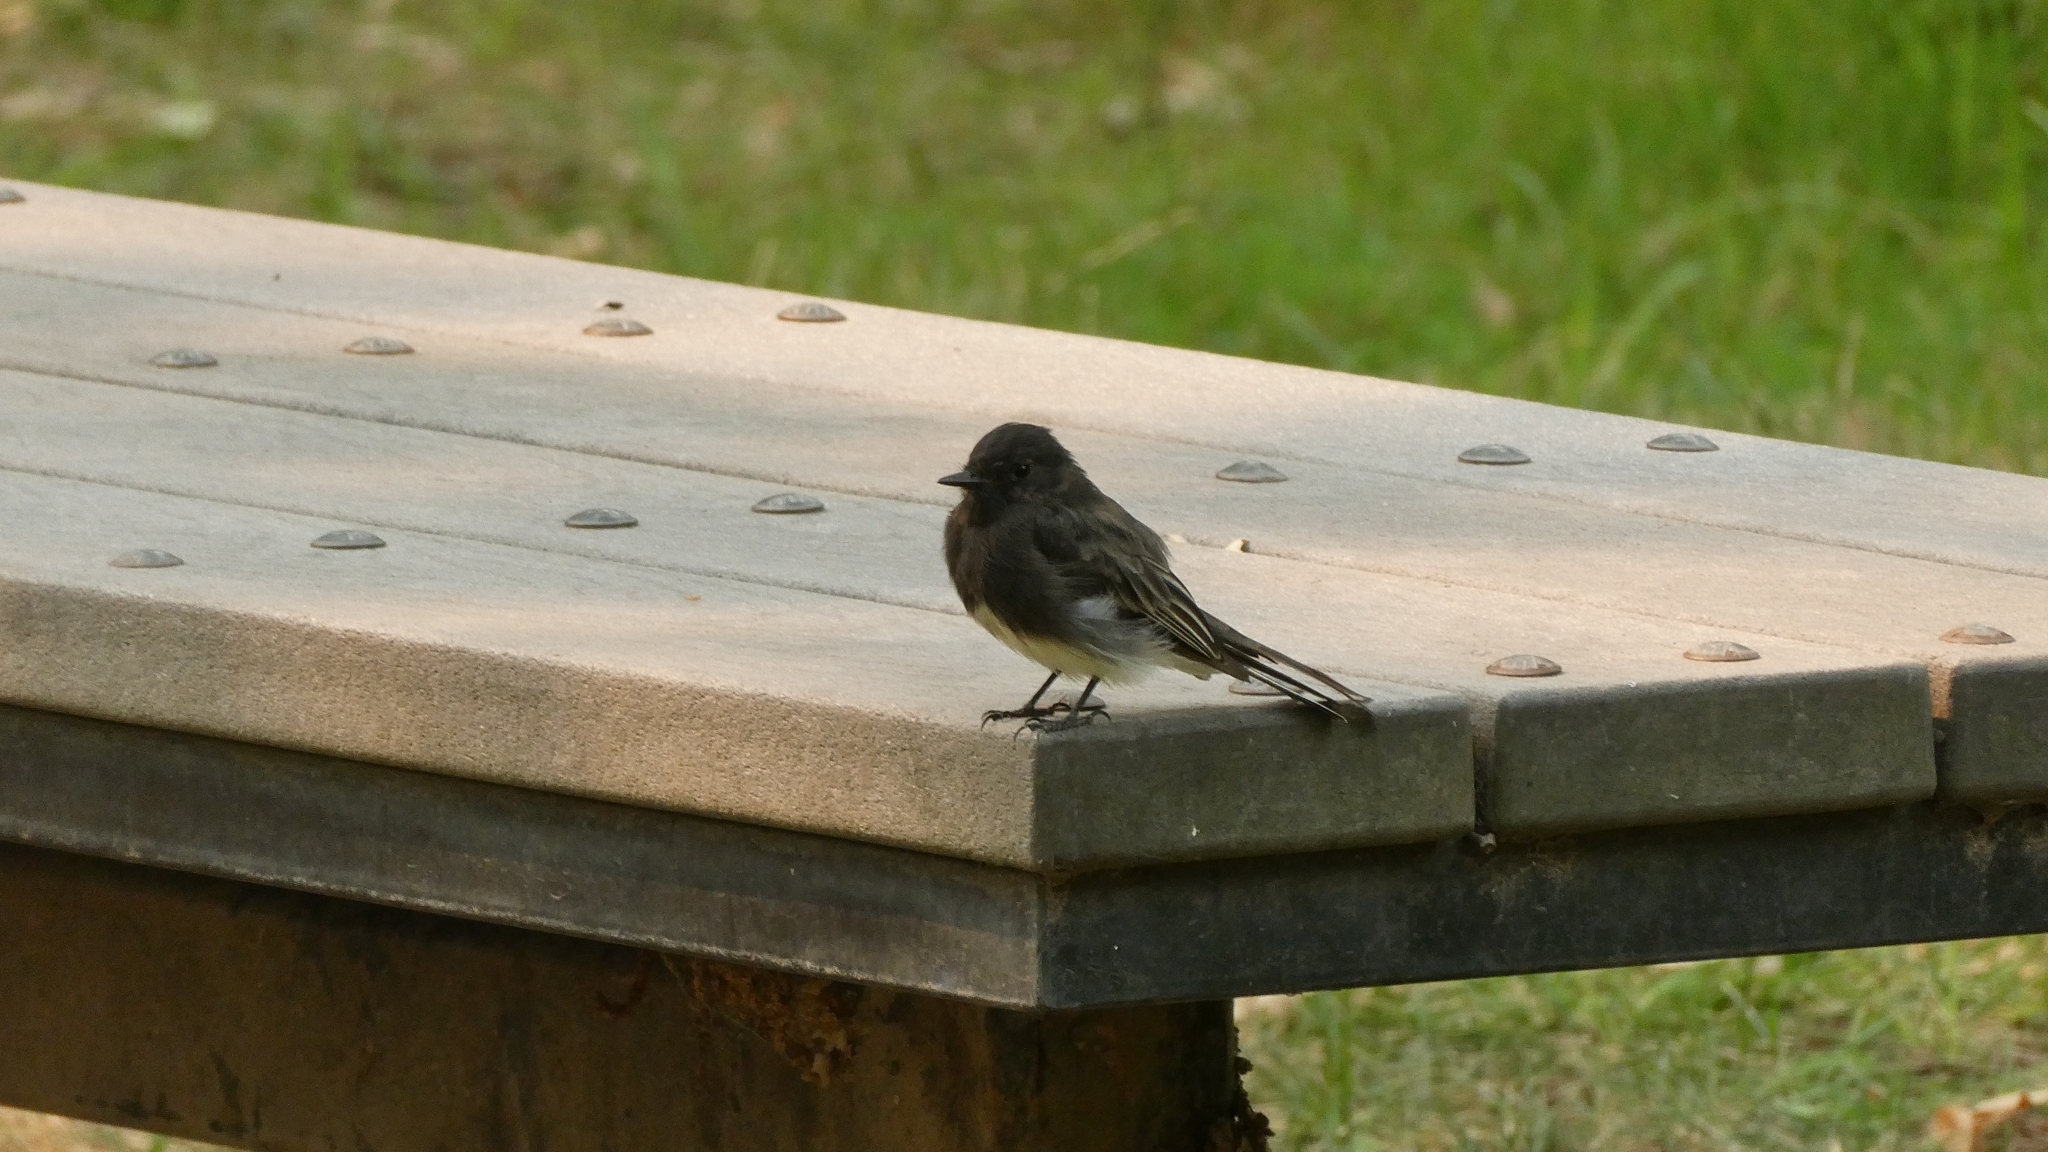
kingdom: Animalia
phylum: Chordata
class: Aves
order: Passeriformes
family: Tyrannidae
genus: Sayornis
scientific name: Sayornis nigricans
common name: Black phoebe
